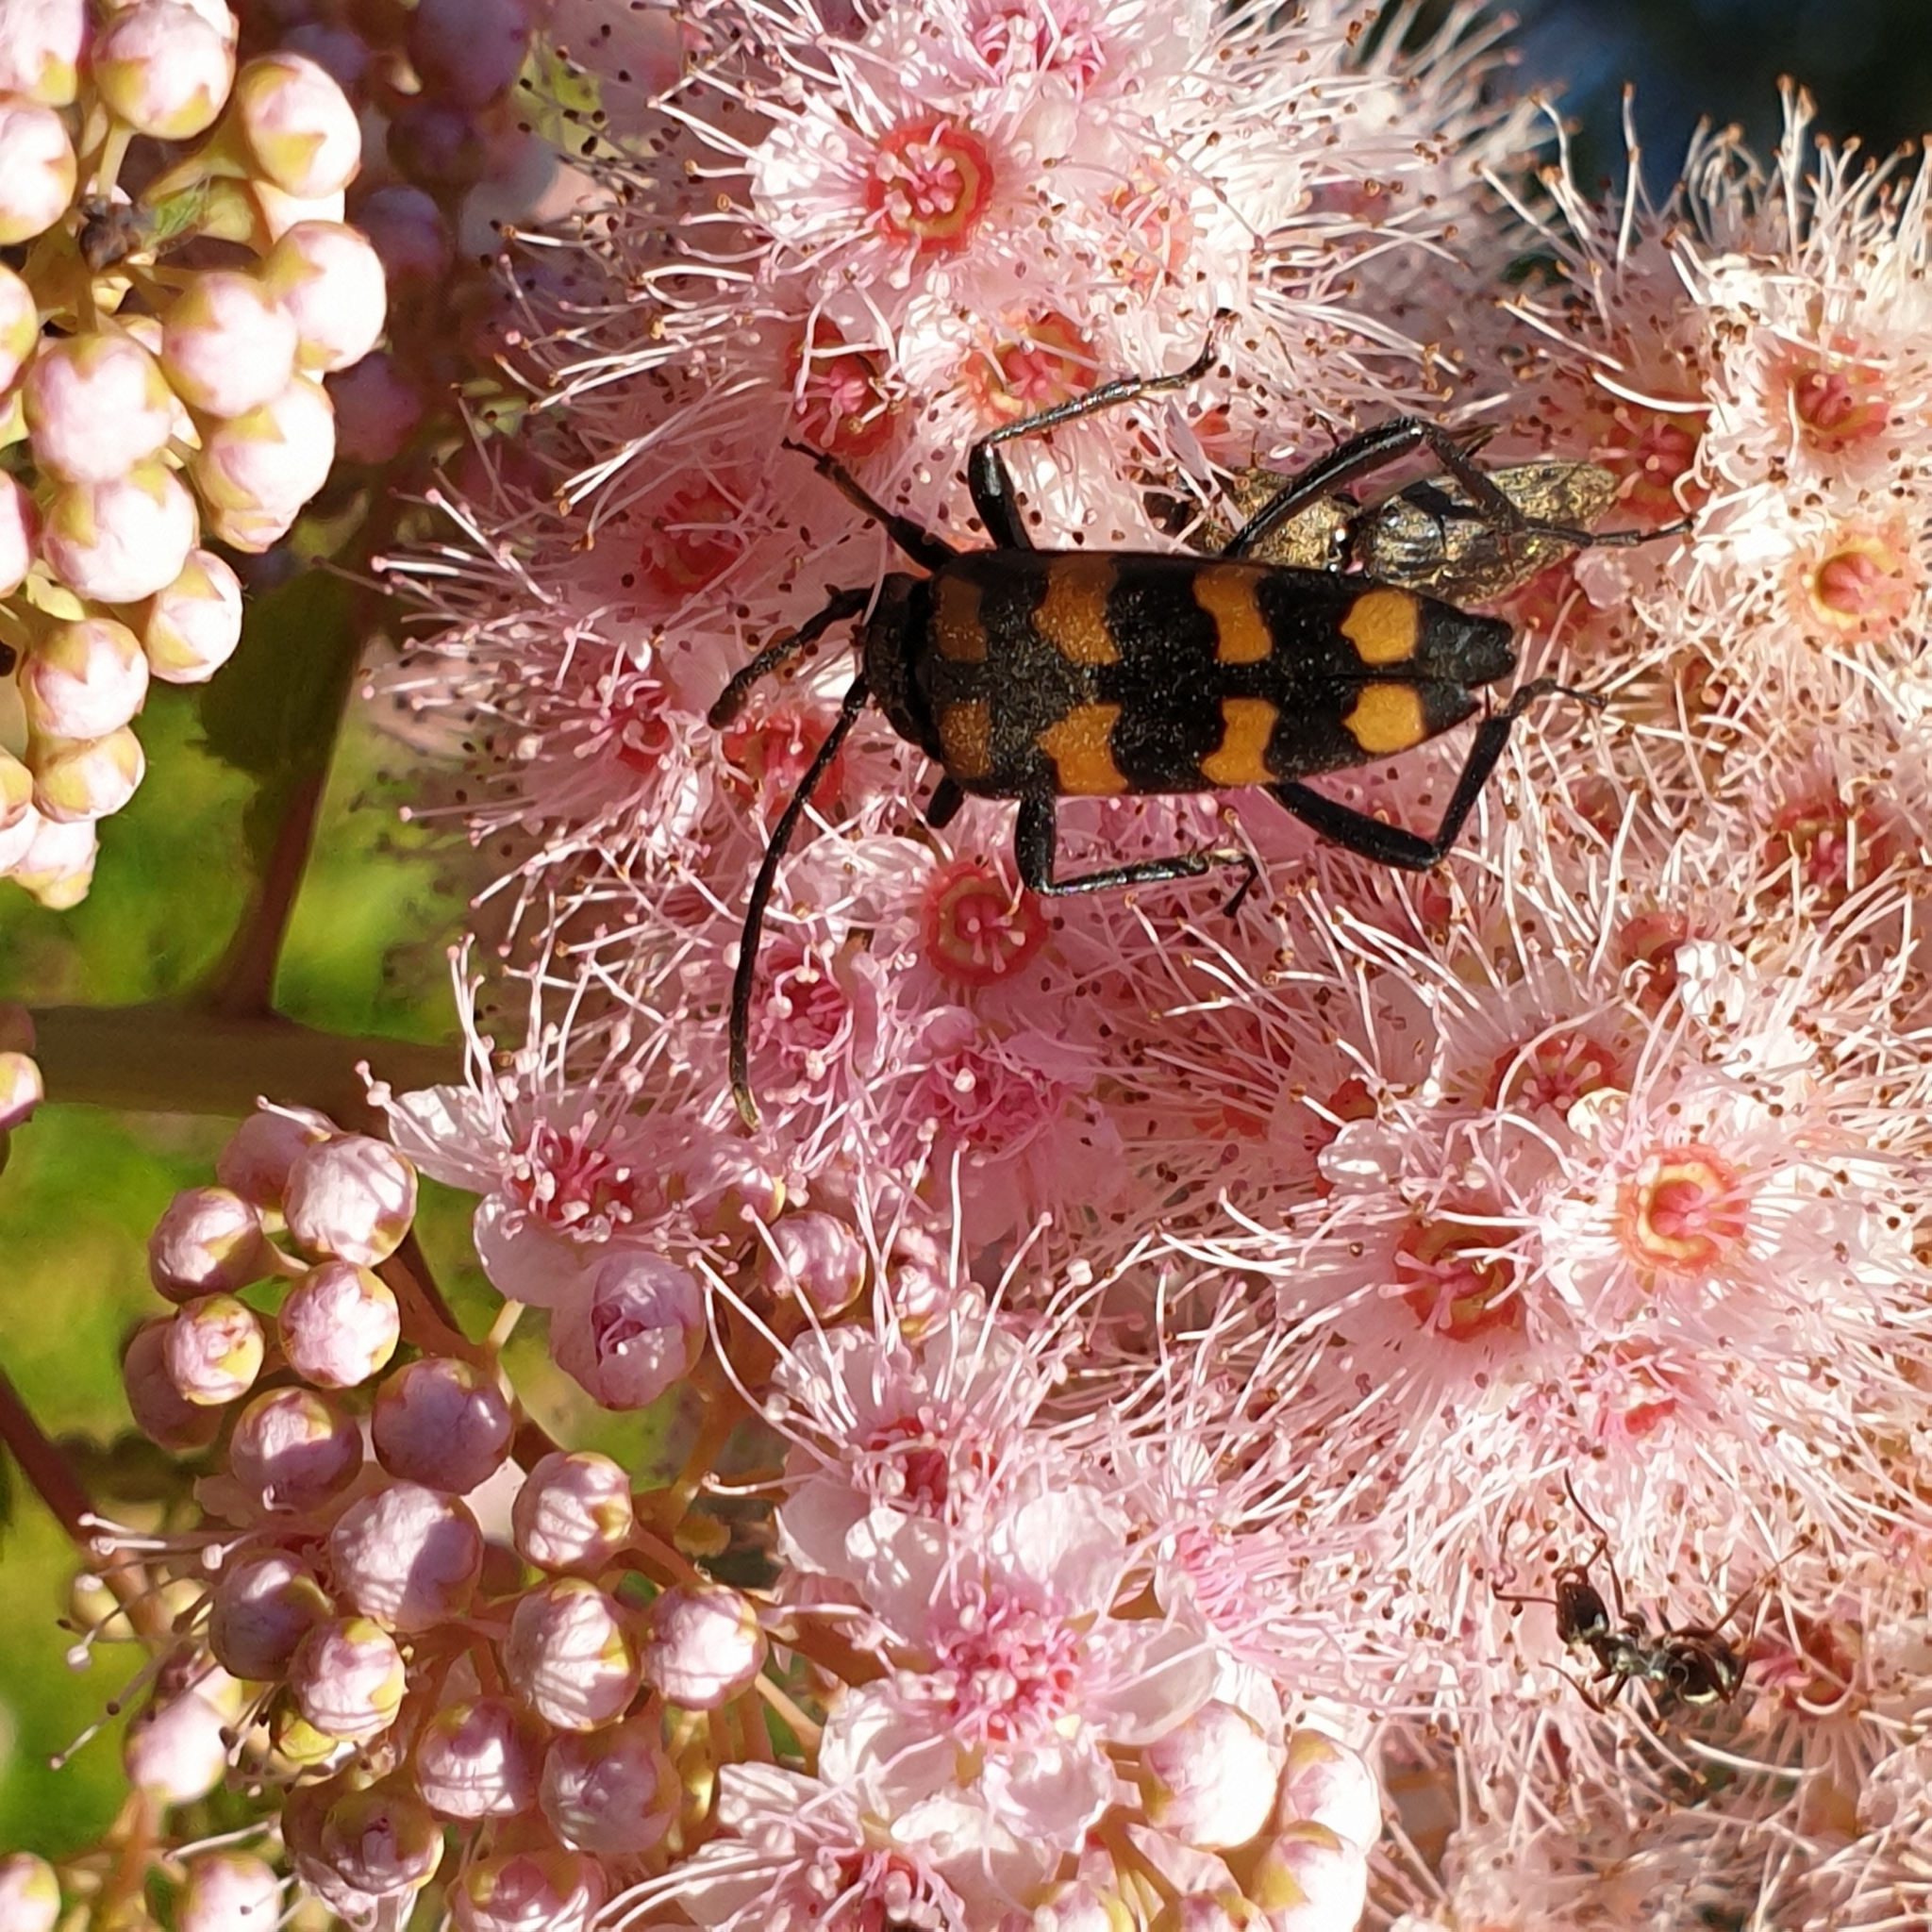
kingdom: Animalia
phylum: Arthropoda
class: Insecta
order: Coleoptera
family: Cerambycidae
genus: Leptura
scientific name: Leptura quadrifasciata
